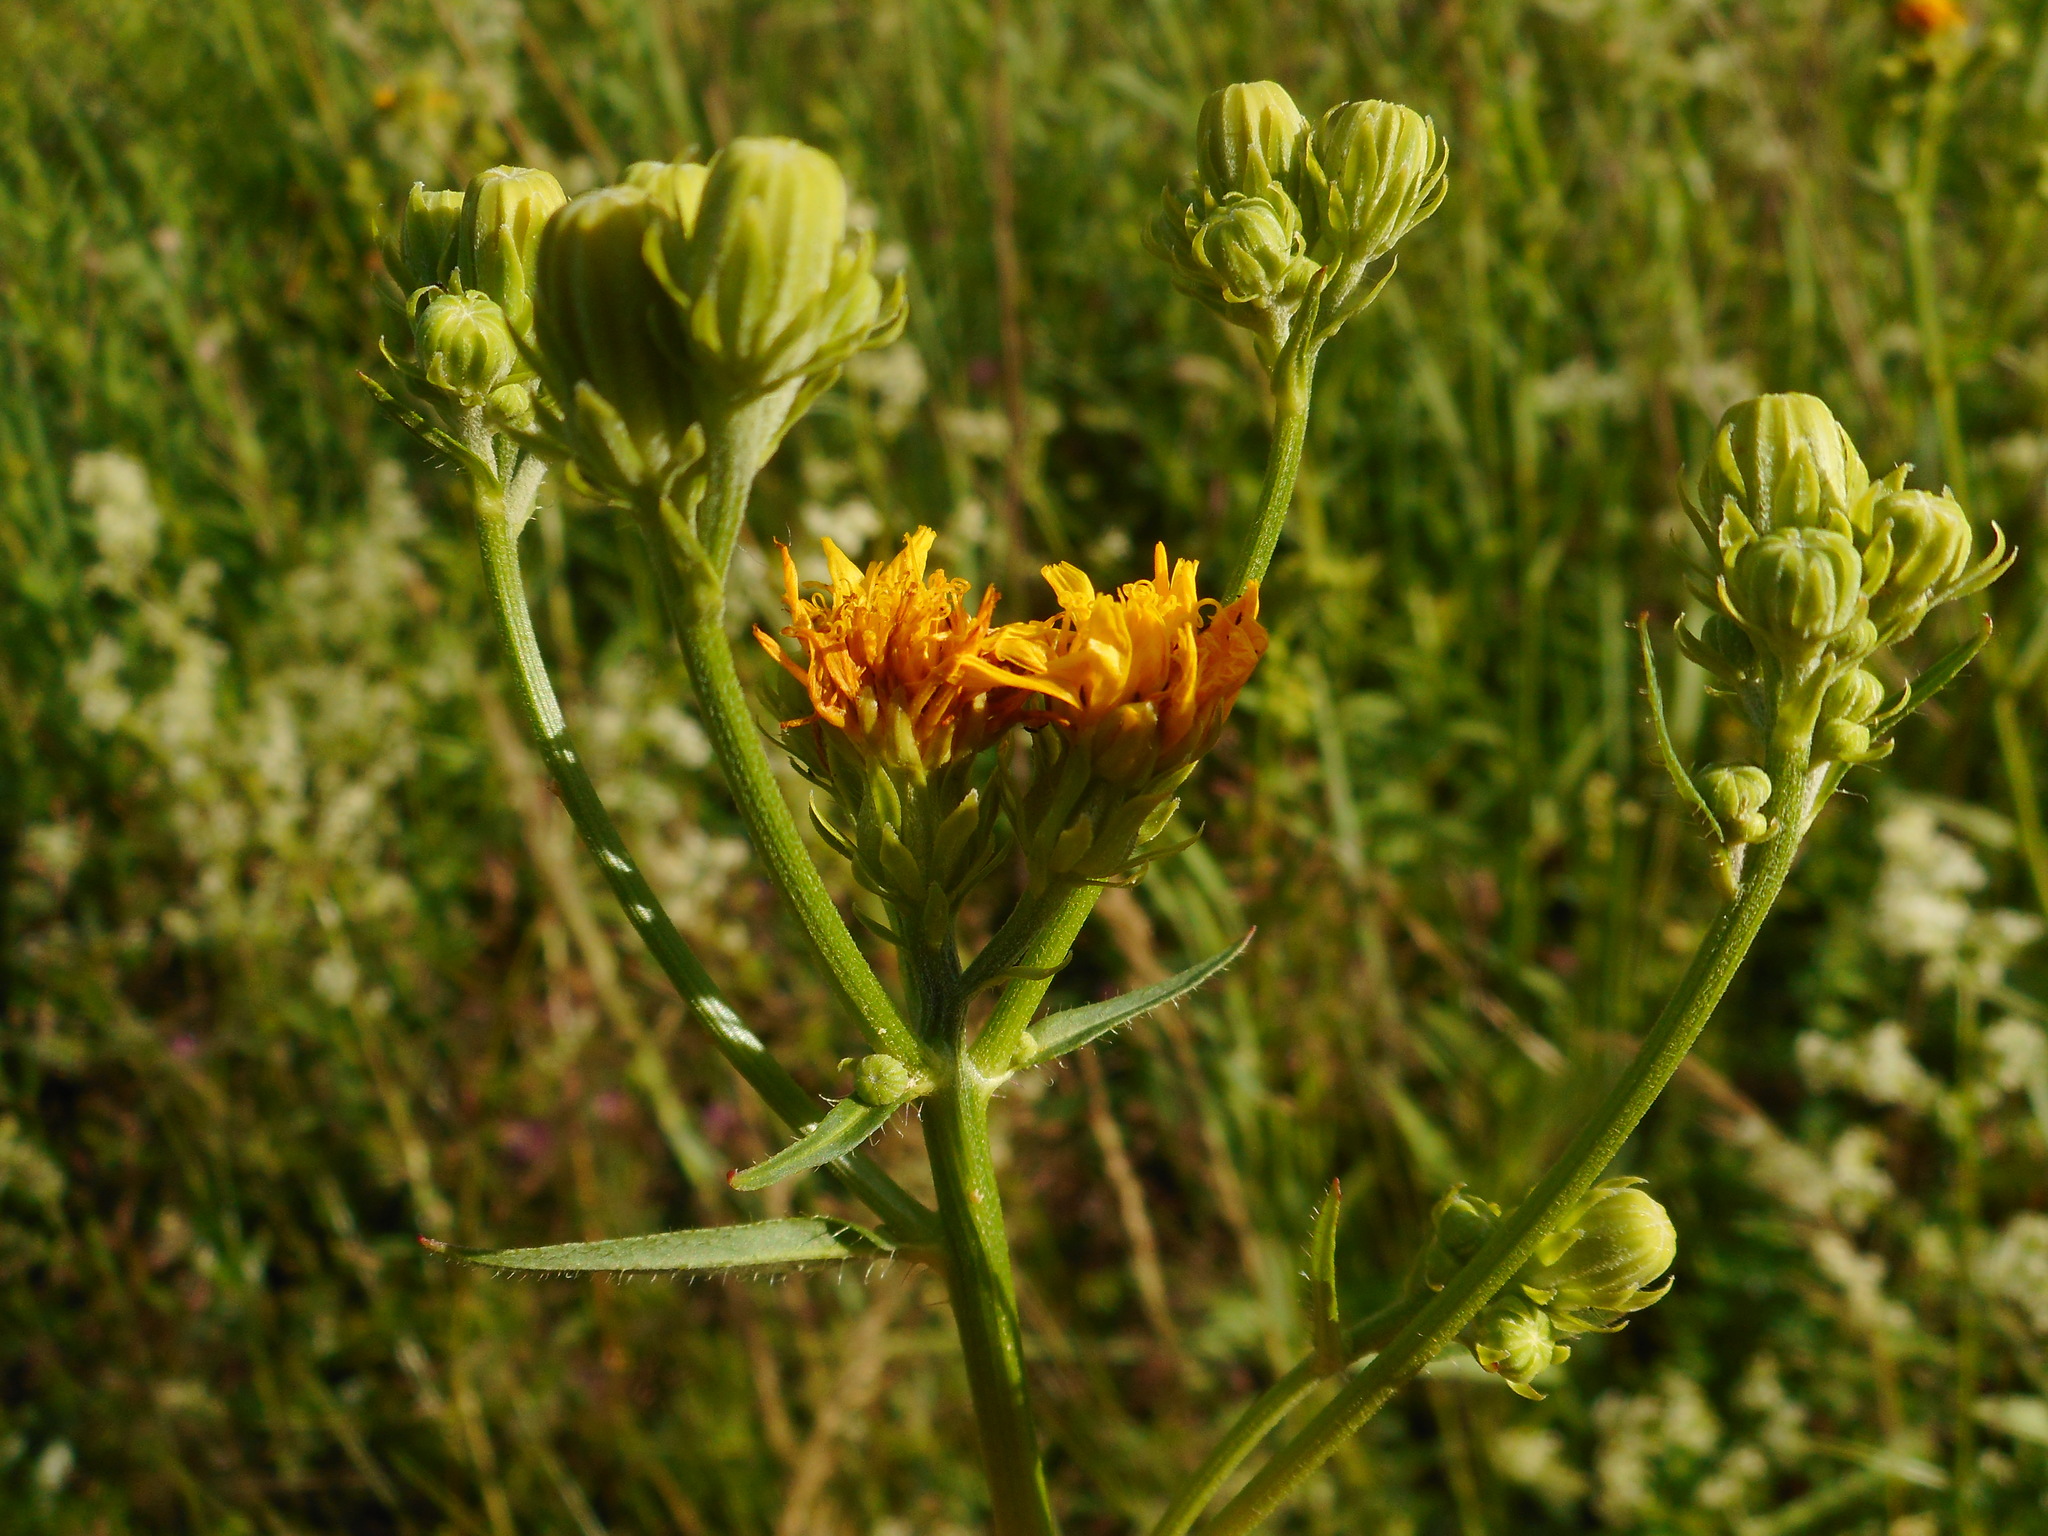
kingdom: Plantae
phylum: Tracheophyta
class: Magnoliopsida
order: Asterales
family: Asteraceae
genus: Picris
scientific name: Picris hieracioides
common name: Hawkweed oxtongue
